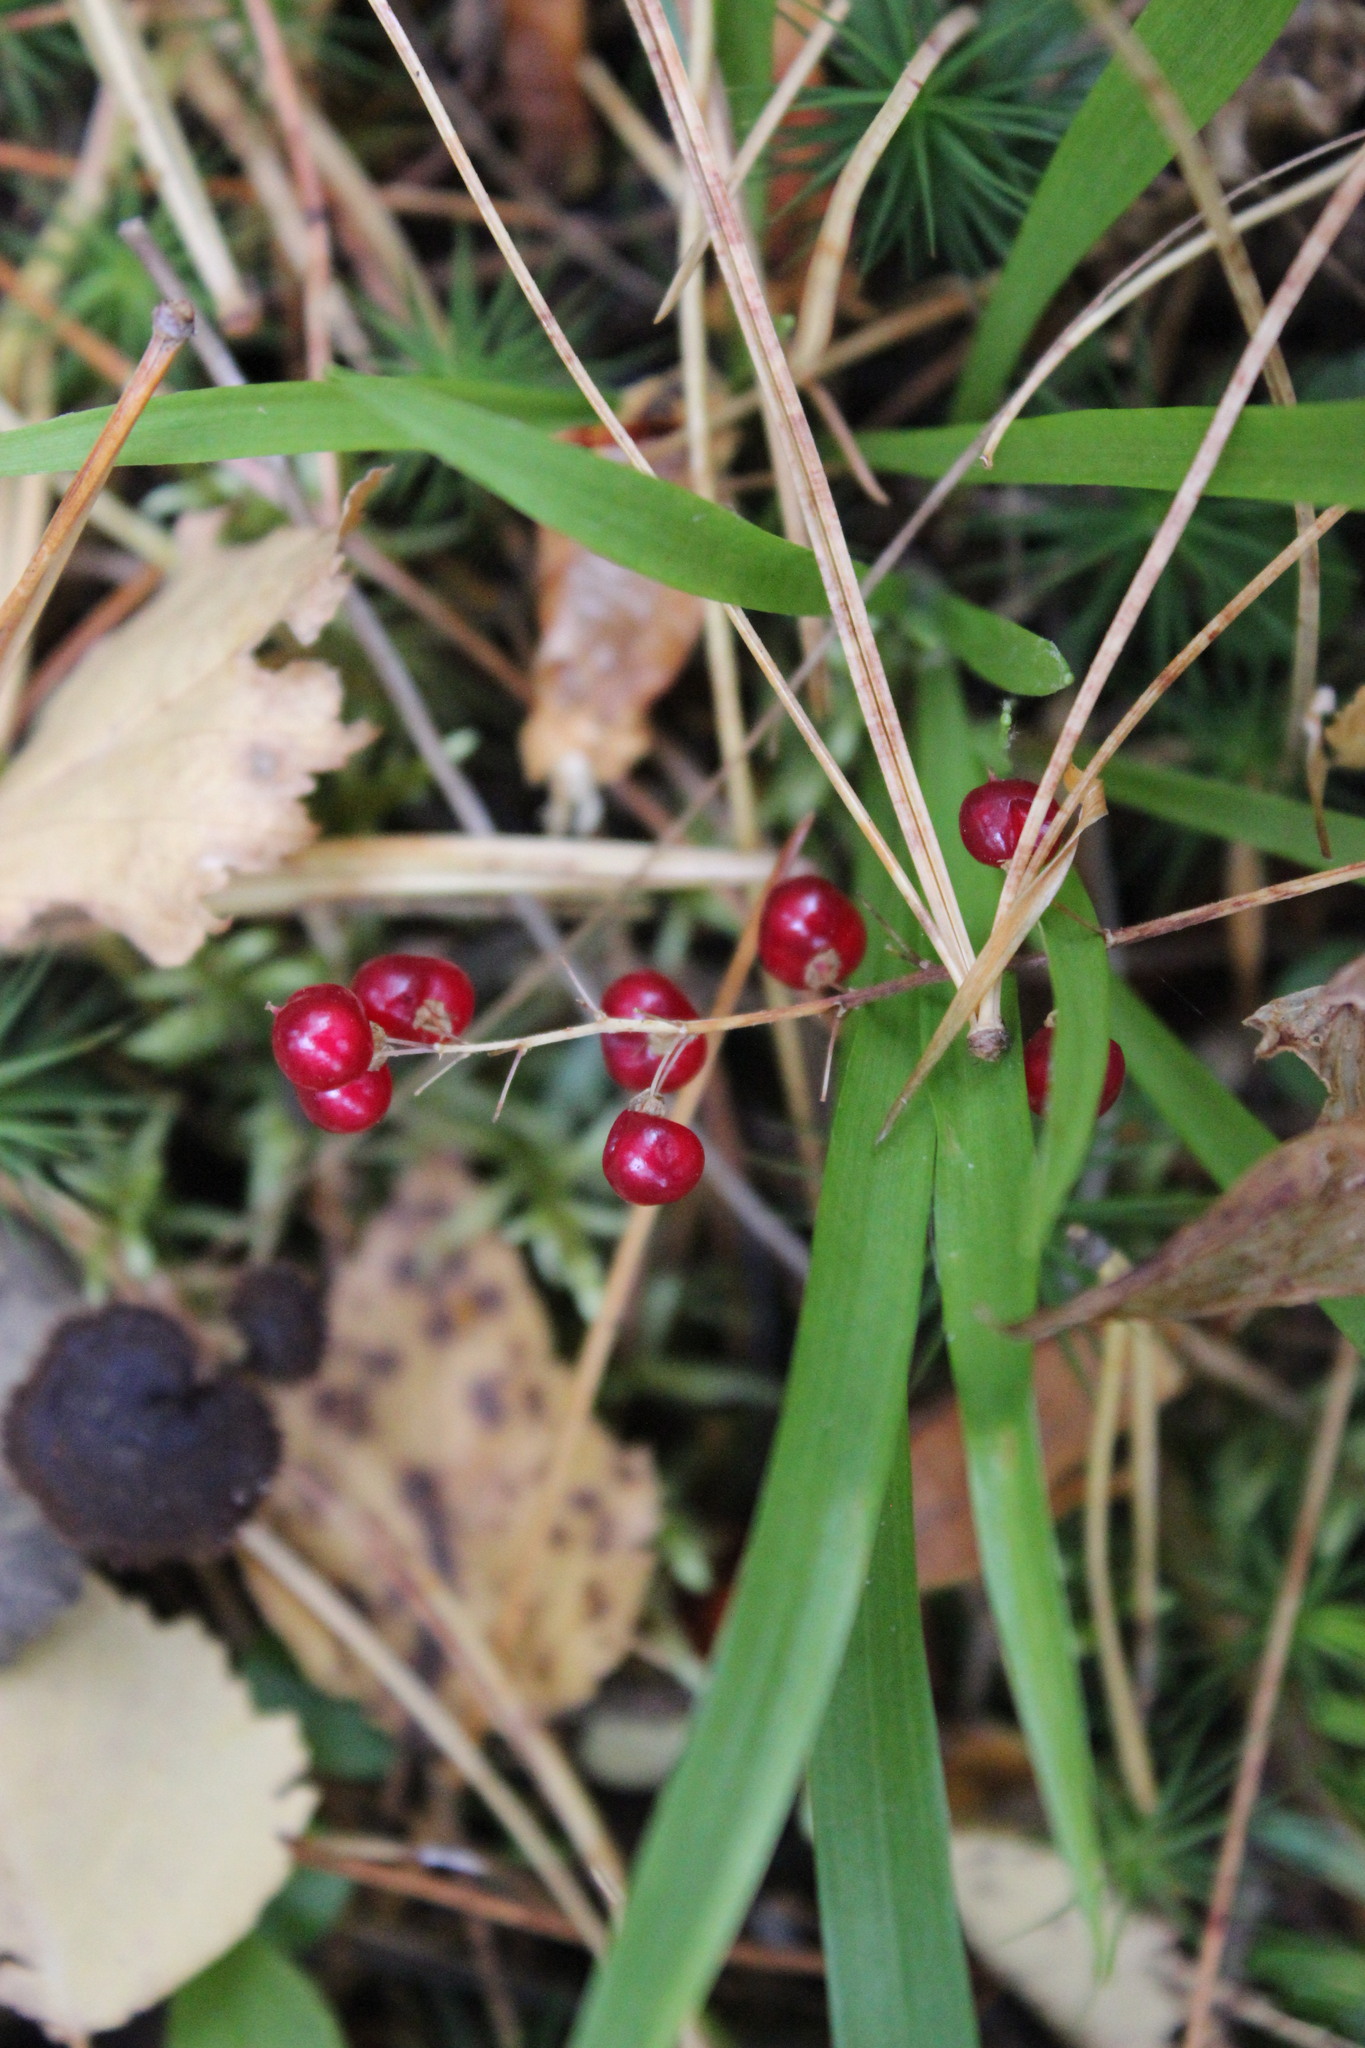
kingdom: Plantae
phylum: Tracheophyta
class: Liliopsida
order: Asparagales
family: Asparagaceae
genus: Maianthemum
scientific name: Maianthemum bifolium
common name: May lily
